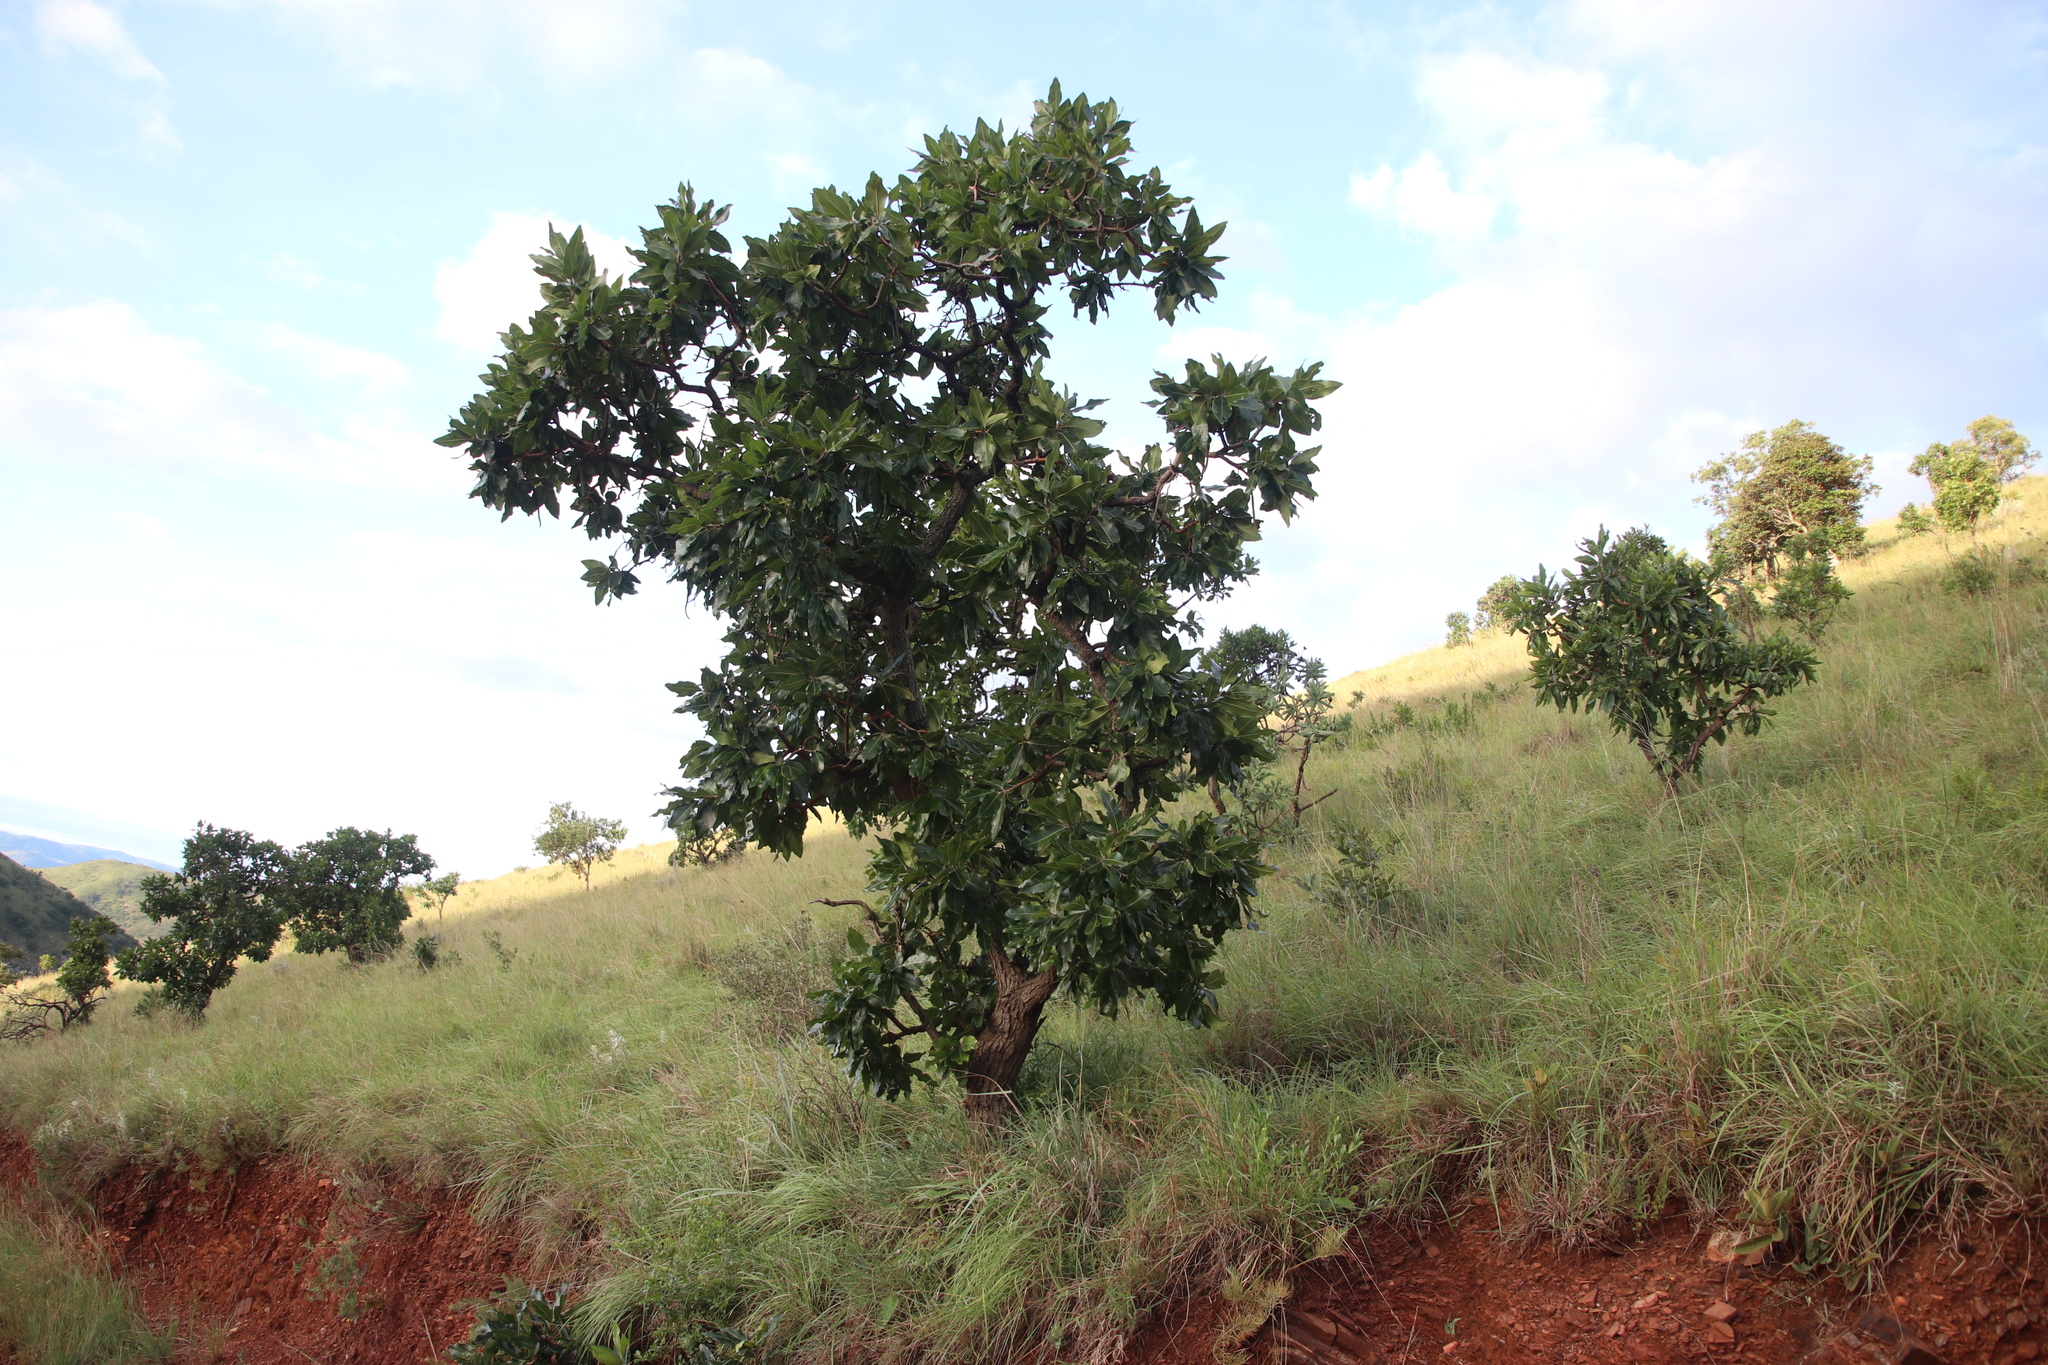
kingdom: Plantae
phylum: Tracheophyta
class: Magnoliopsida
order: Proteales
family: Proteaceae
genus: Faurea
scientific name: Faurea rochetiana
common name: Broad-leaved beech
